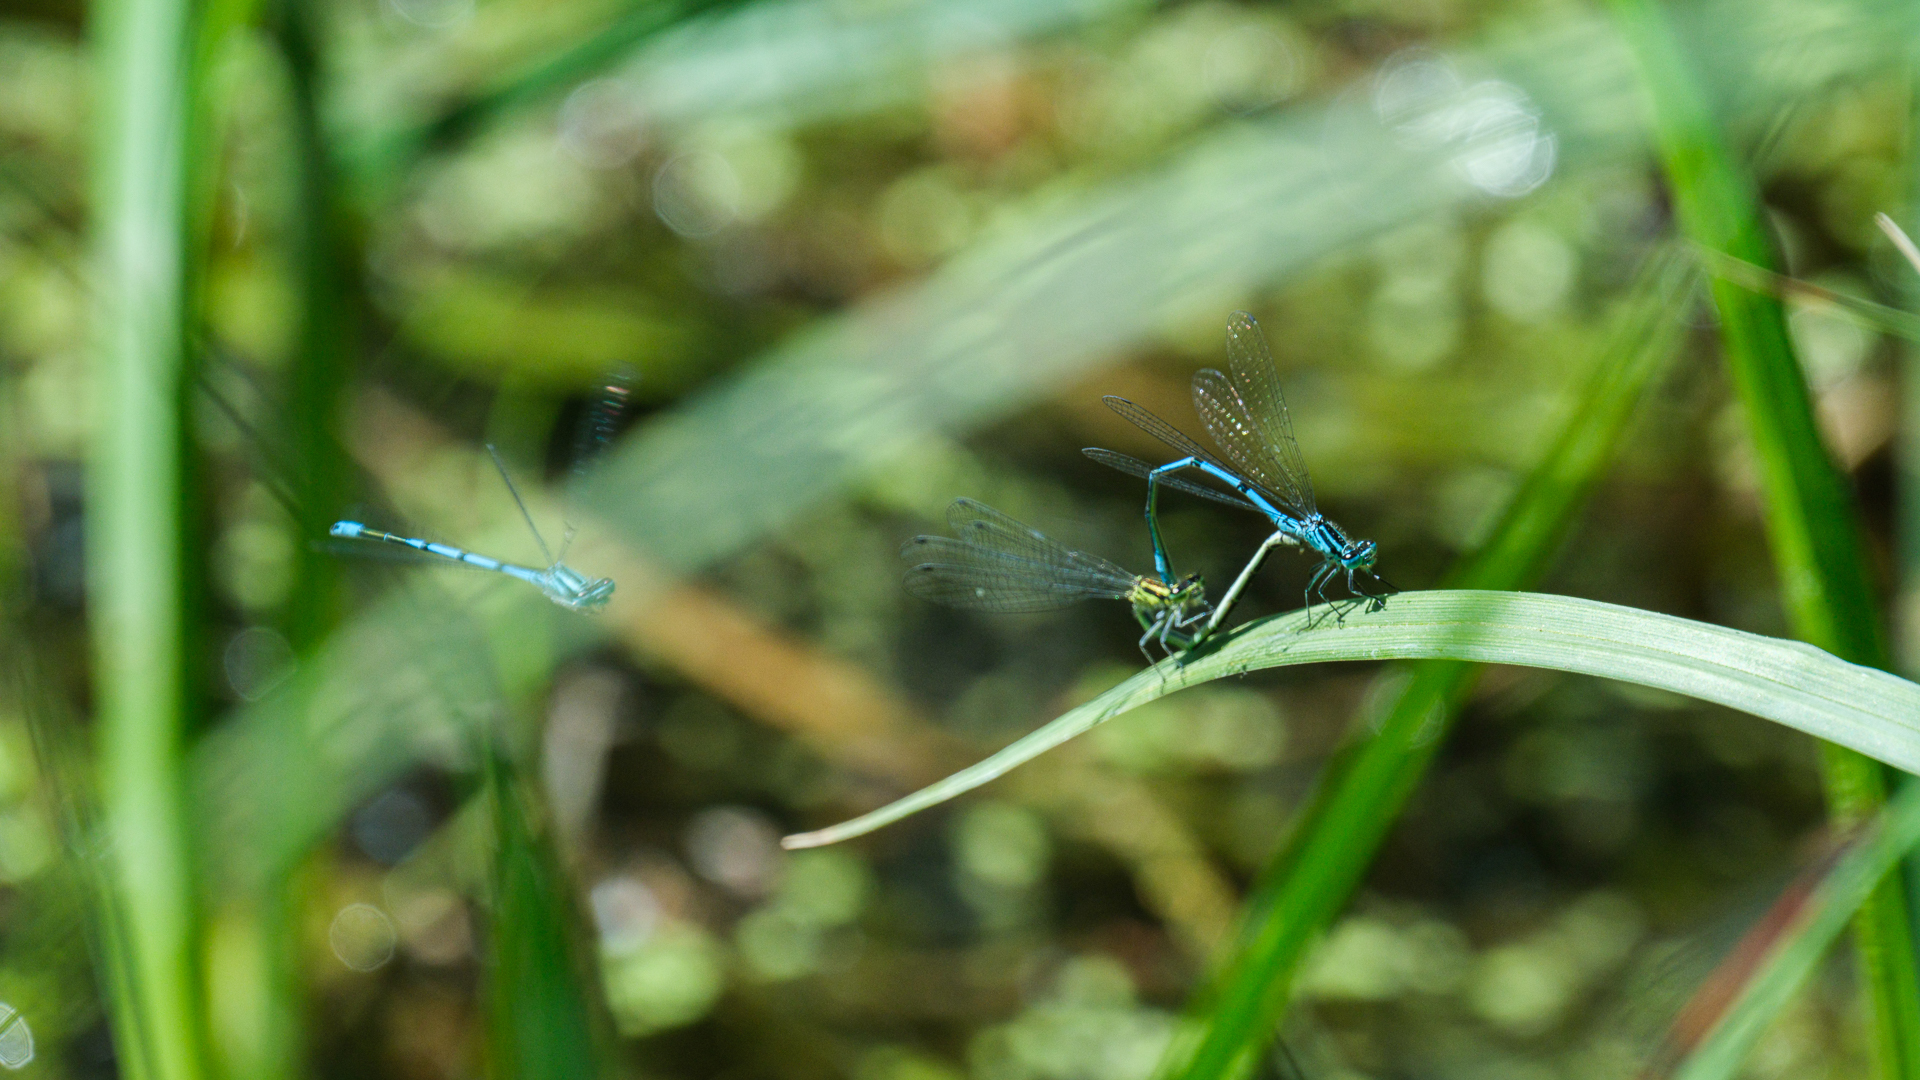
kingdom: Animalia
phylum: Arthropoda
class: Insecta
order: Odonata
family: Coenagrionidae
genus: Coenagrion
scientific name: Coenagrion puella
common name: Azure damselfly
